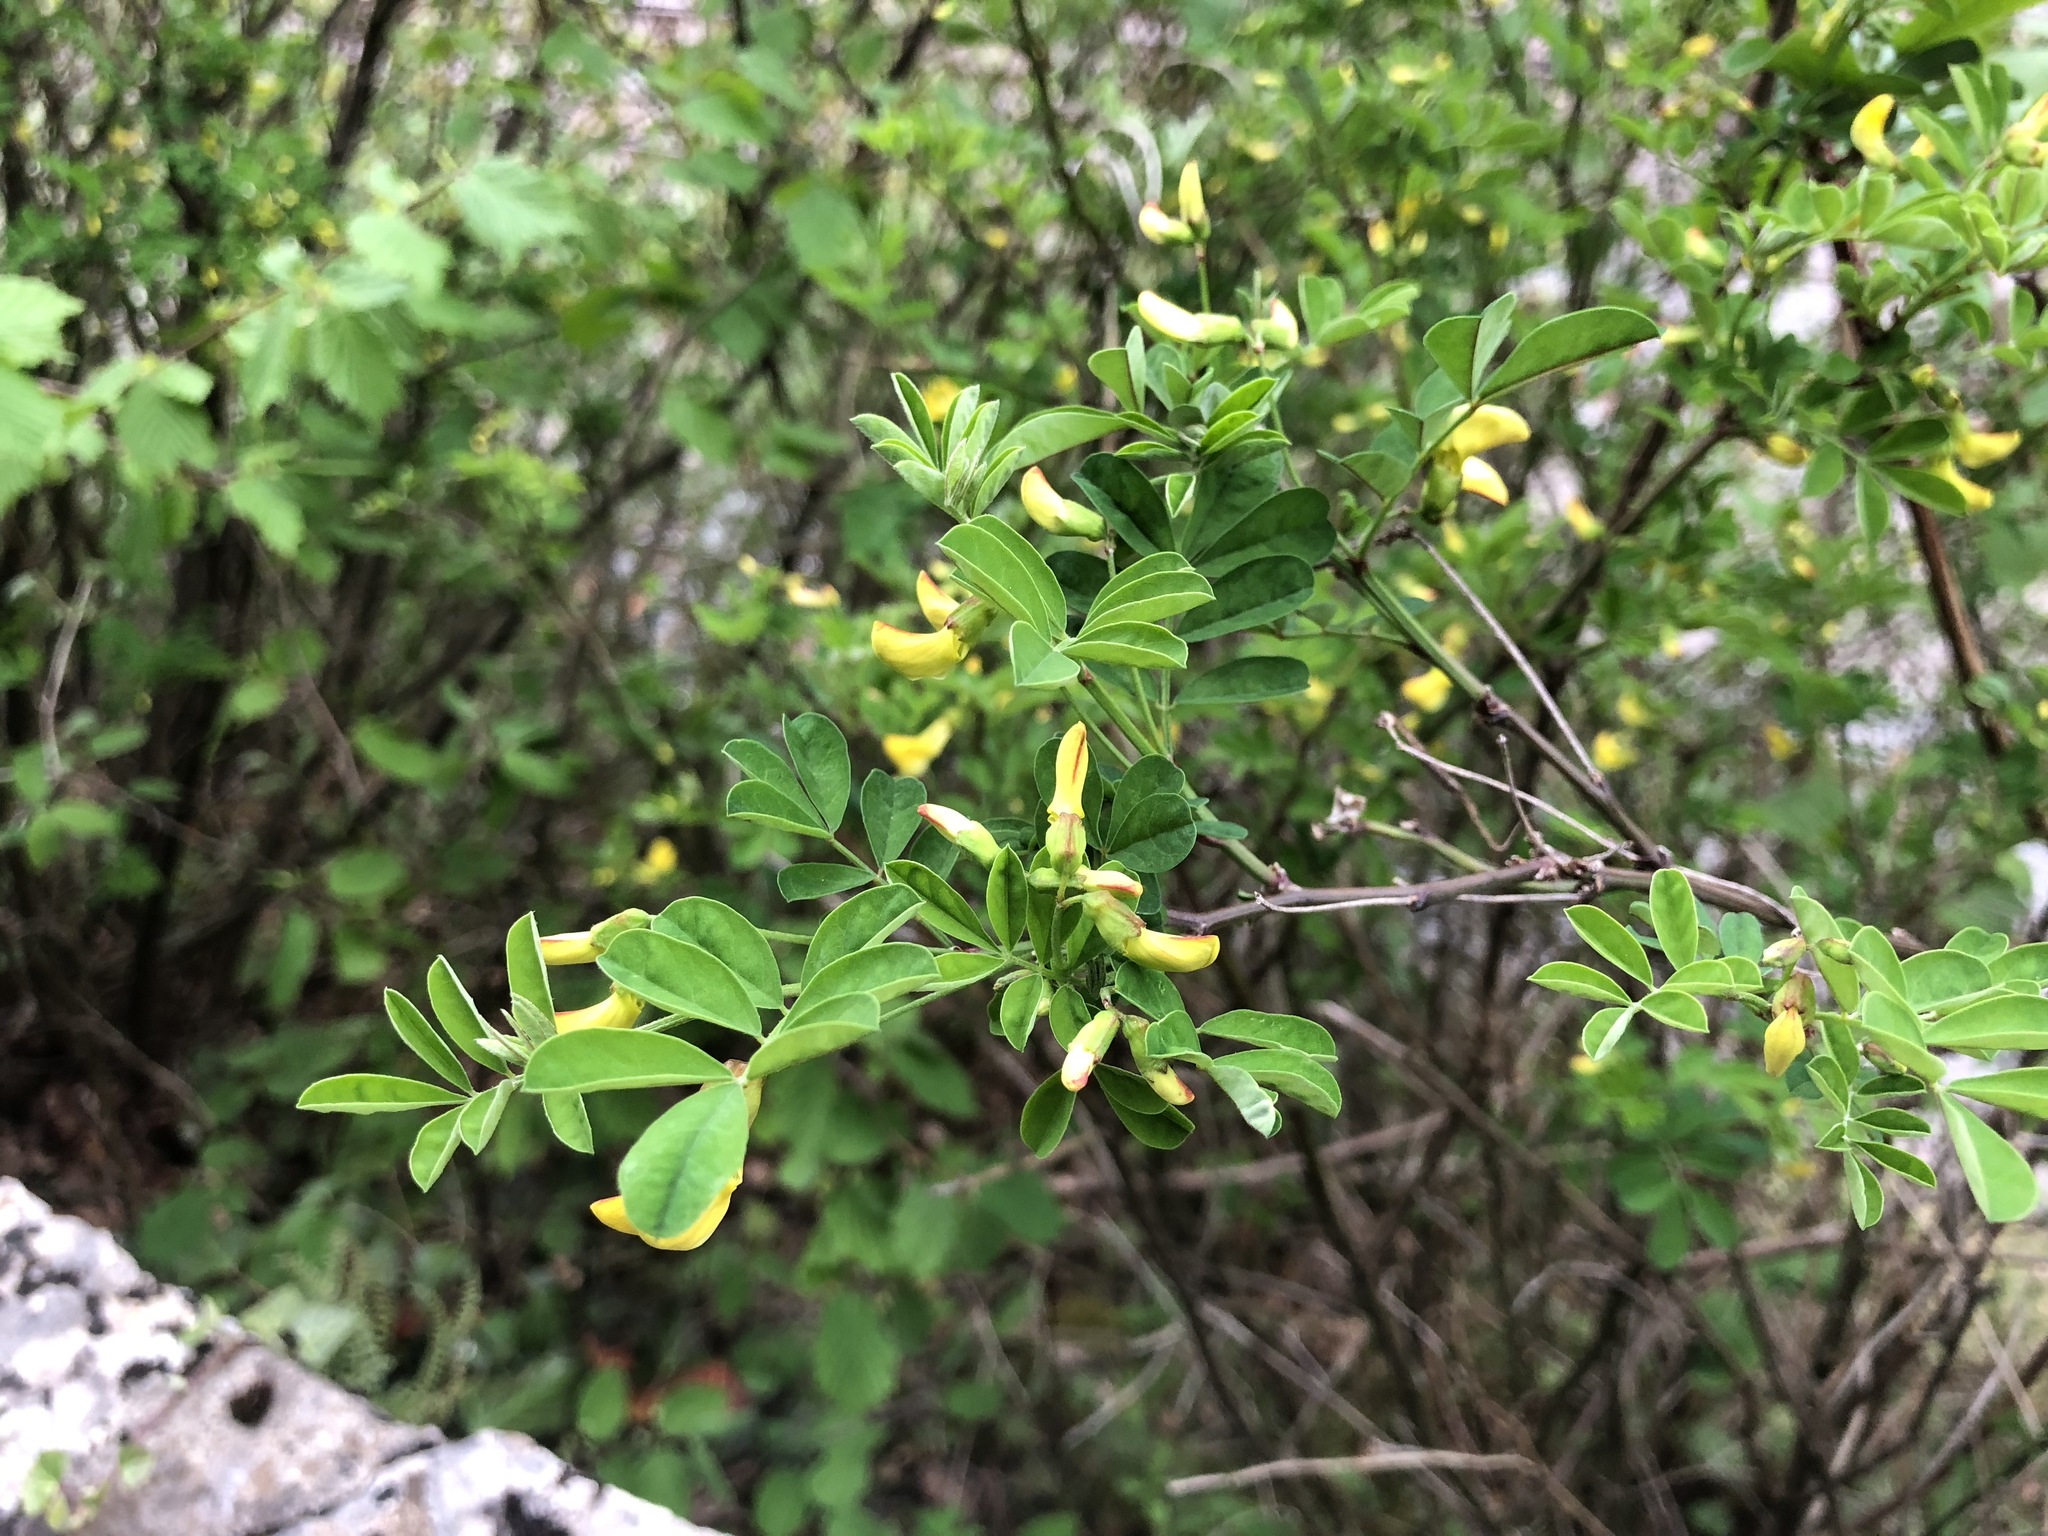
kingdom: Plantae
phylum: Tracheophyta
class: Magnoliopsida
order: Fabales
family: Fabaceae
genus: Hippocrepis
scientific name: Hippocrepis emerus
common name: Scorpion senna
